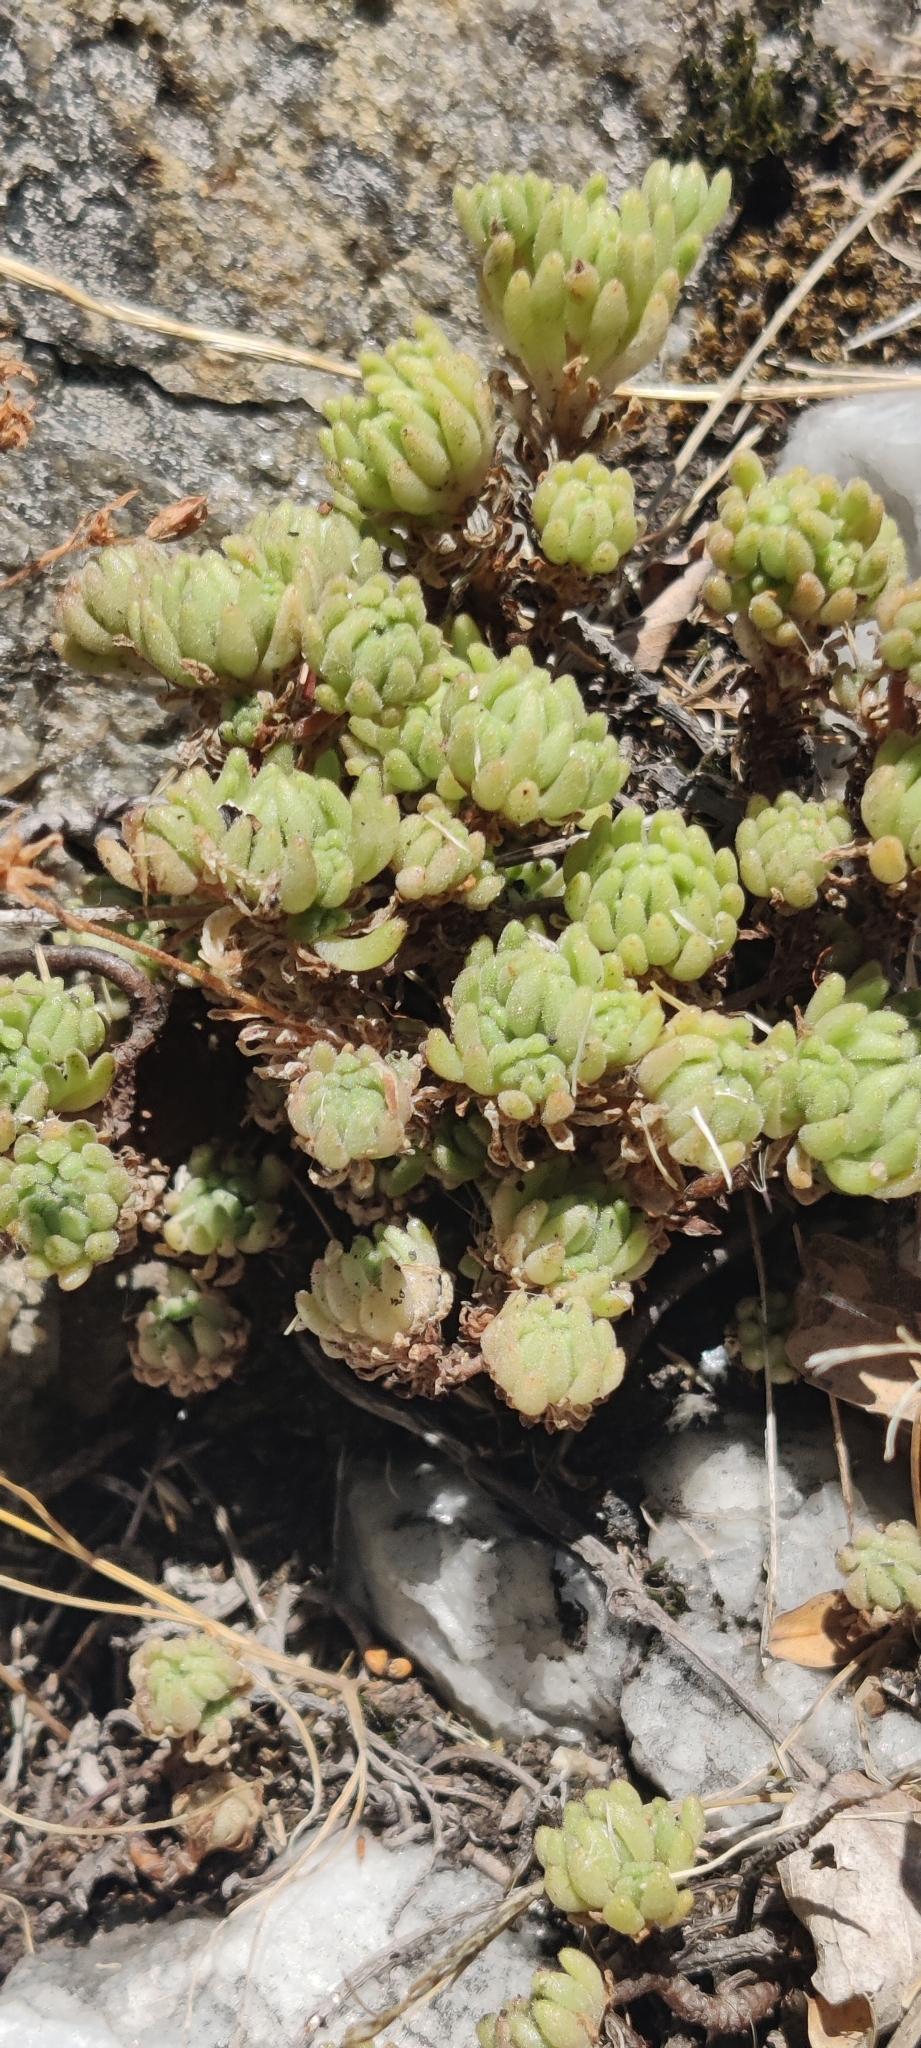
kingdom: Plantae
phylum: Tracheophyta
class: Magnoliopsida
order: Saxifragales
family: Crassulaceae
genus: Sedum
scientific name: Sedum hirsutum
